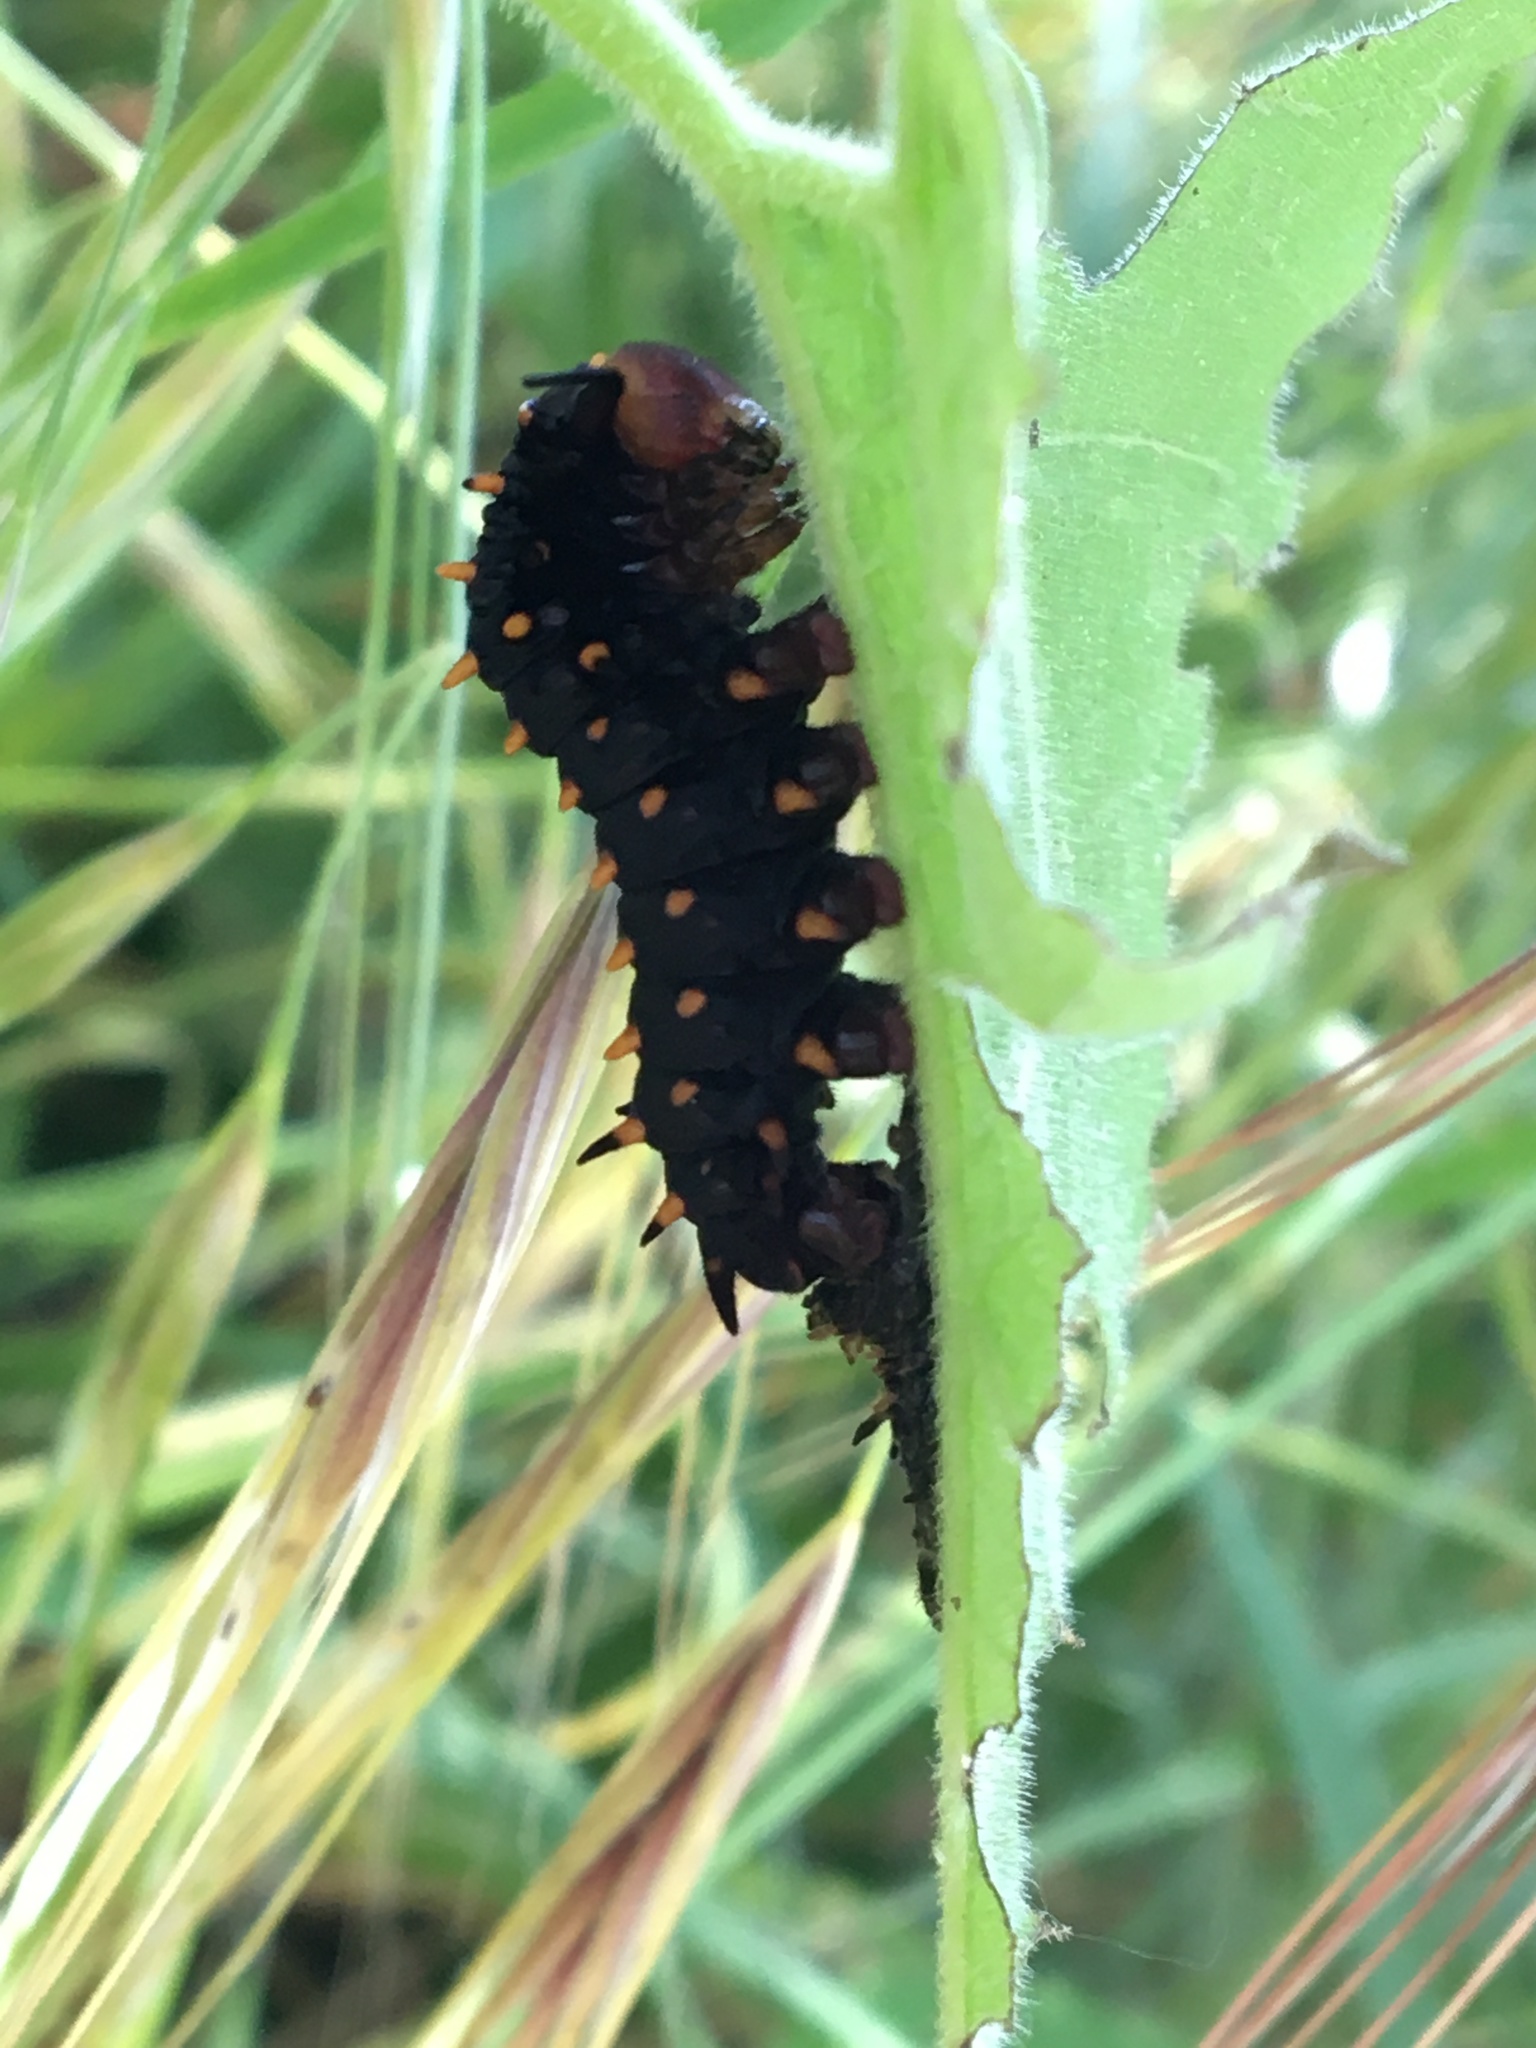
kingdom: Animalia
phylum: Arthropoda
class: Insecta
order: Lepidoptera
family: Papilionidae
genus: Battus
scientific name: Battus philenor
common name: Pipevine swallowtail
